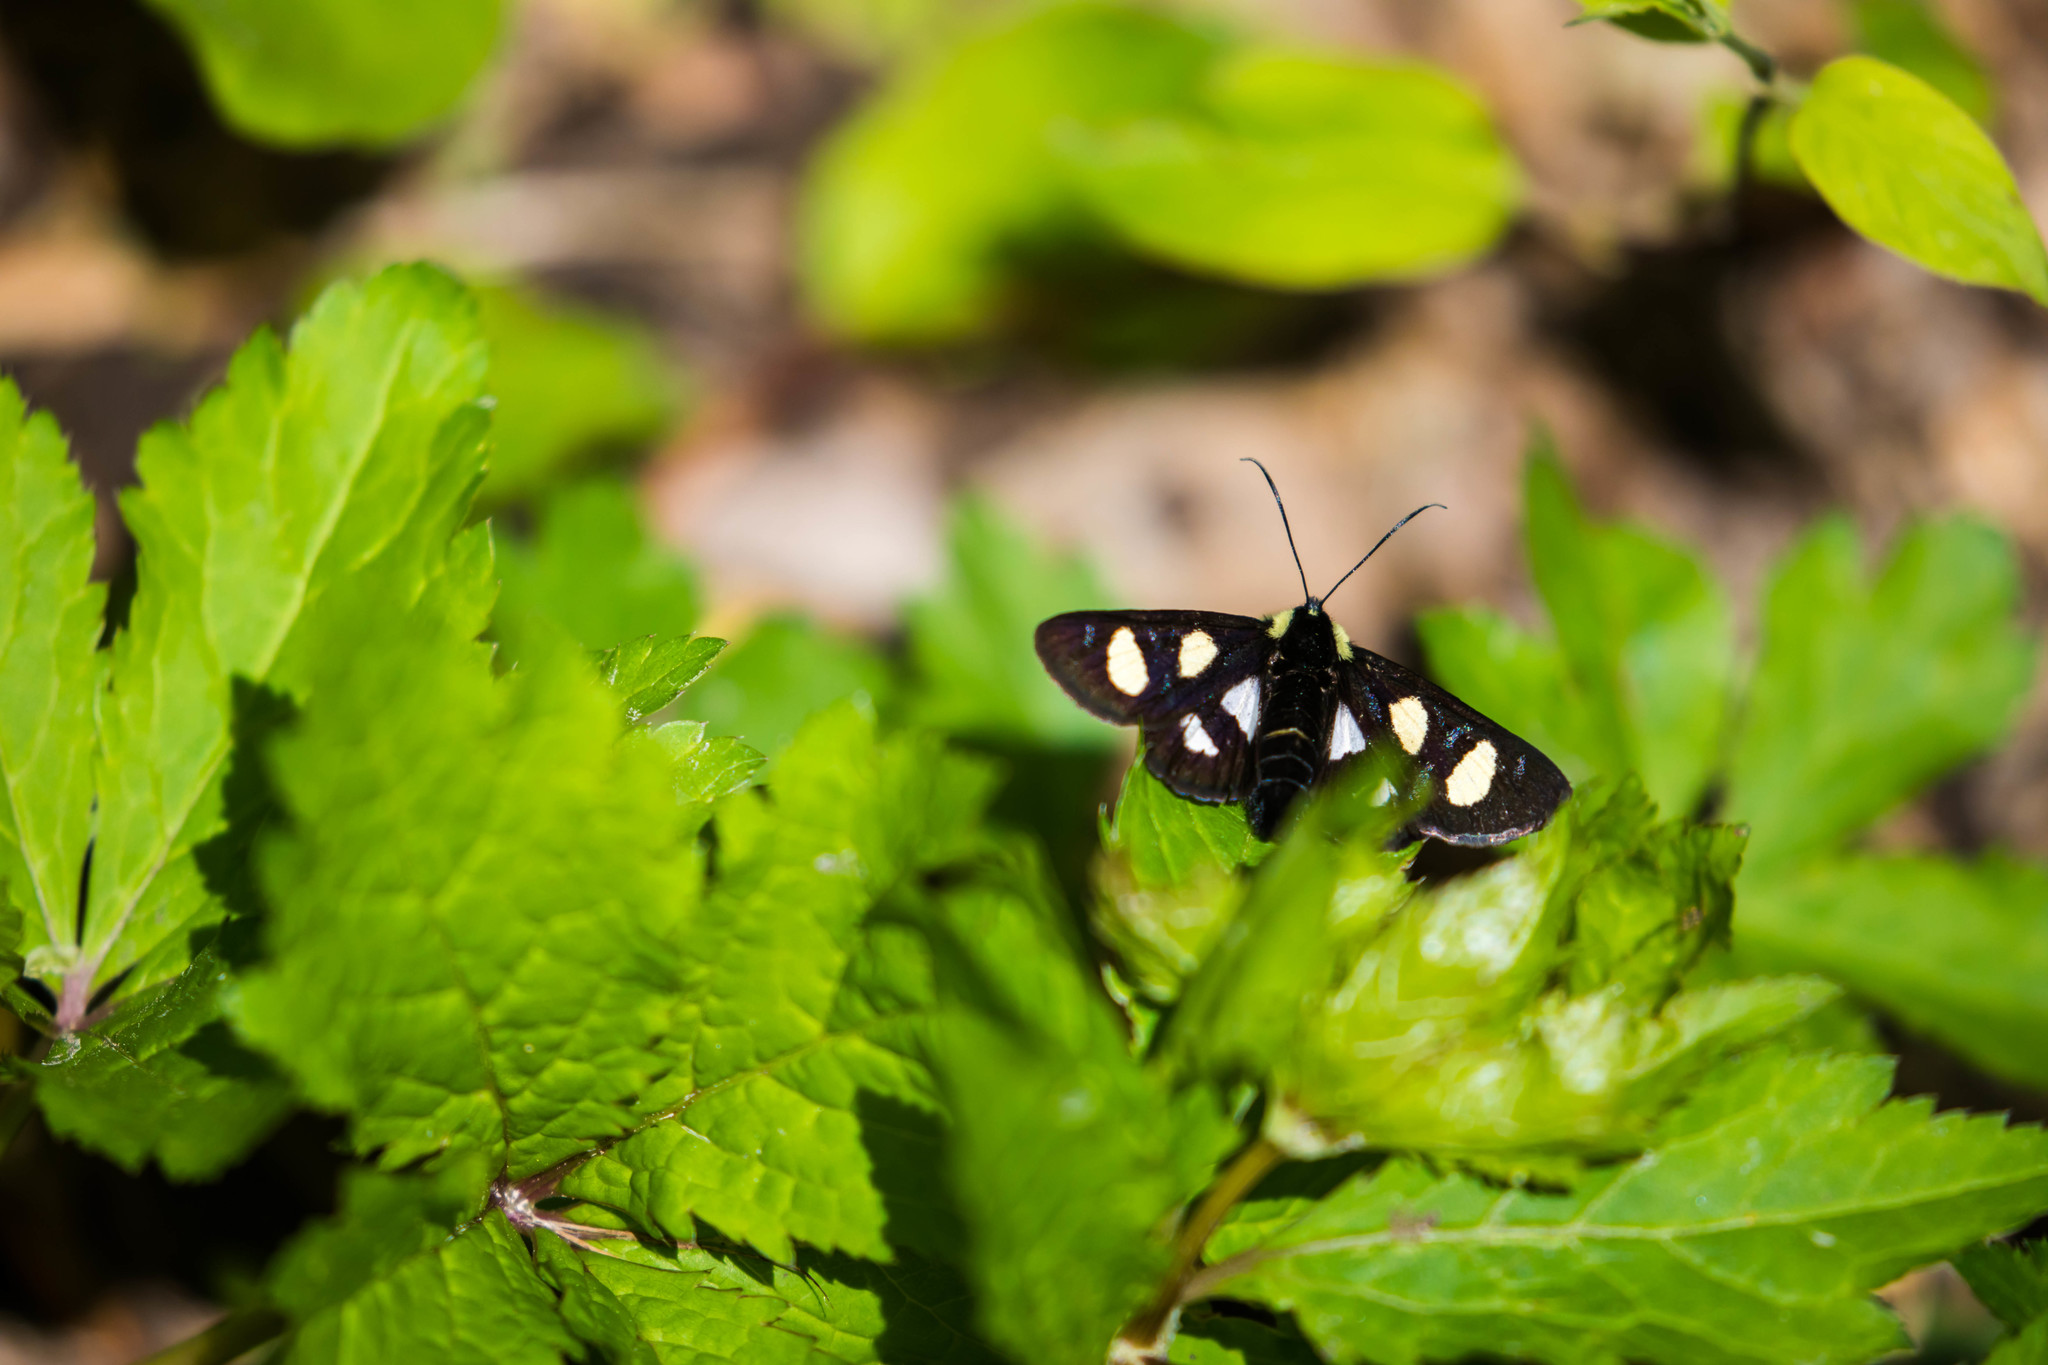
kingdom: Animalia
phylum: Arthropoda
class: Insecta
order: Lepidoptera
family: Noctuidae
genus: Alypia
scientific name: Alypia octomaculata
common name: Eight-spotted forester
